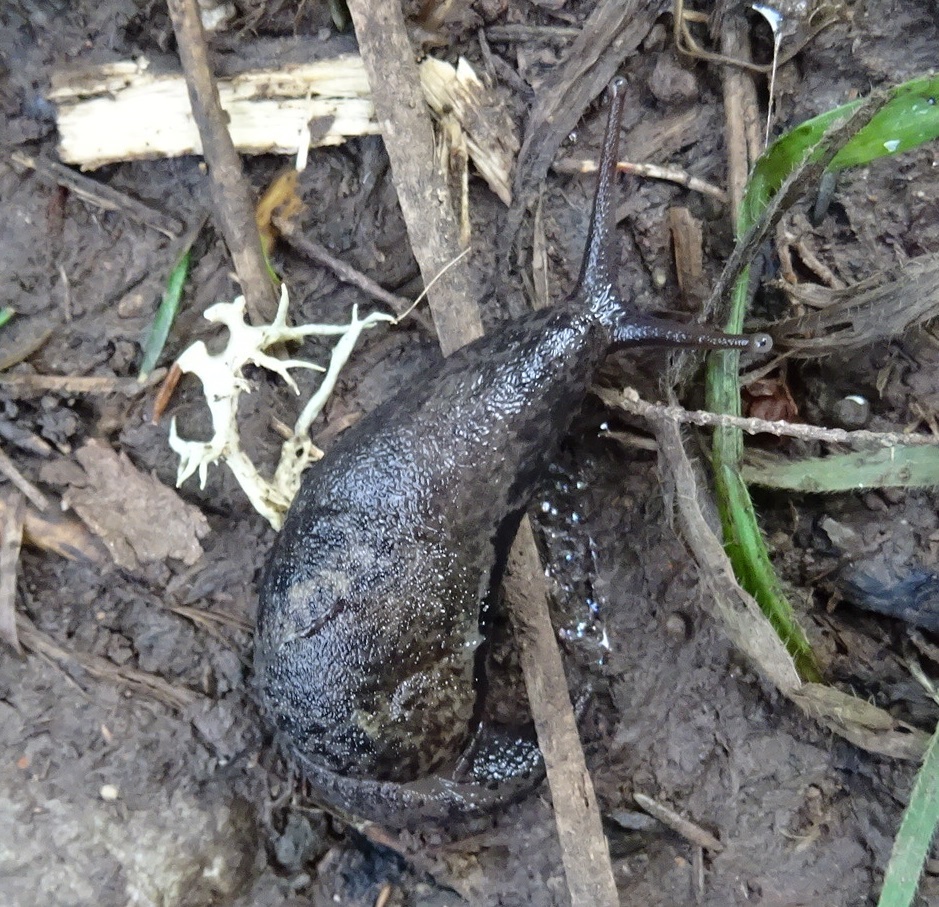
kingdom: Animalia
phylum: Mollusca
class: Gastropoda
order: Stylommatophora
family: Vitrinidae
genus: Insulivitrina
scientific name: Insulivitrina lamarckii
